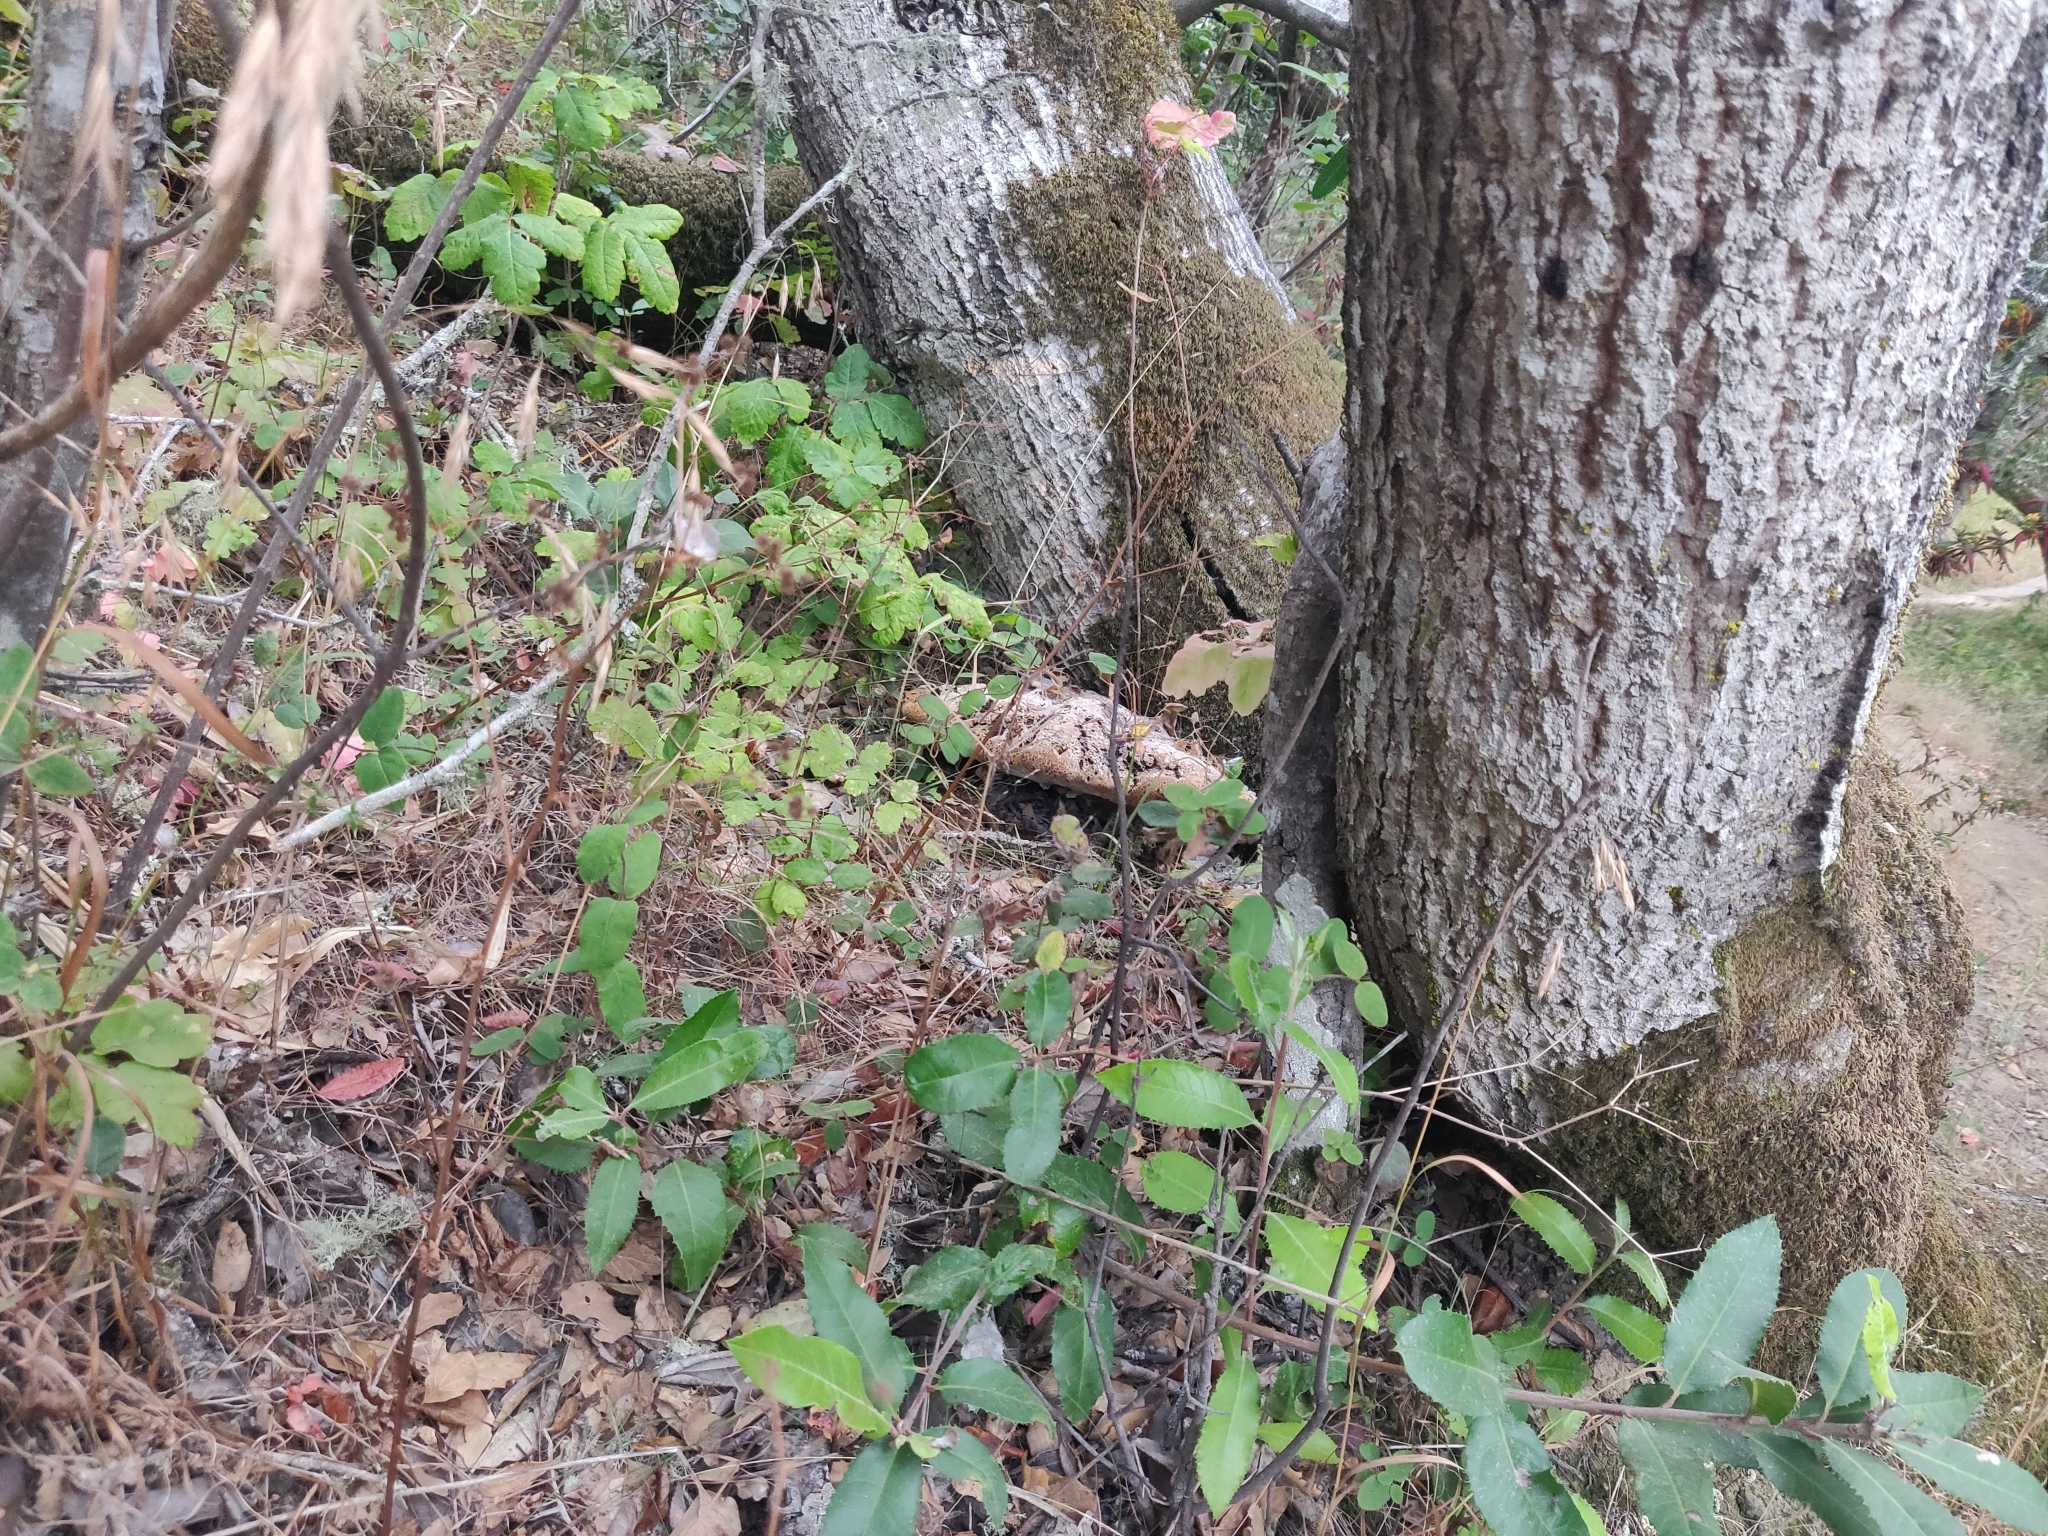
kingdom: Fungi
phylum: Basidiomycota
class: Agaricomycetes
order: Hymenochaetales
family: Hymenochaetaceae
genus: Pseudoinonotus
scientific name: Pseudoinonotus dryadeus
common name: Oak bracket
